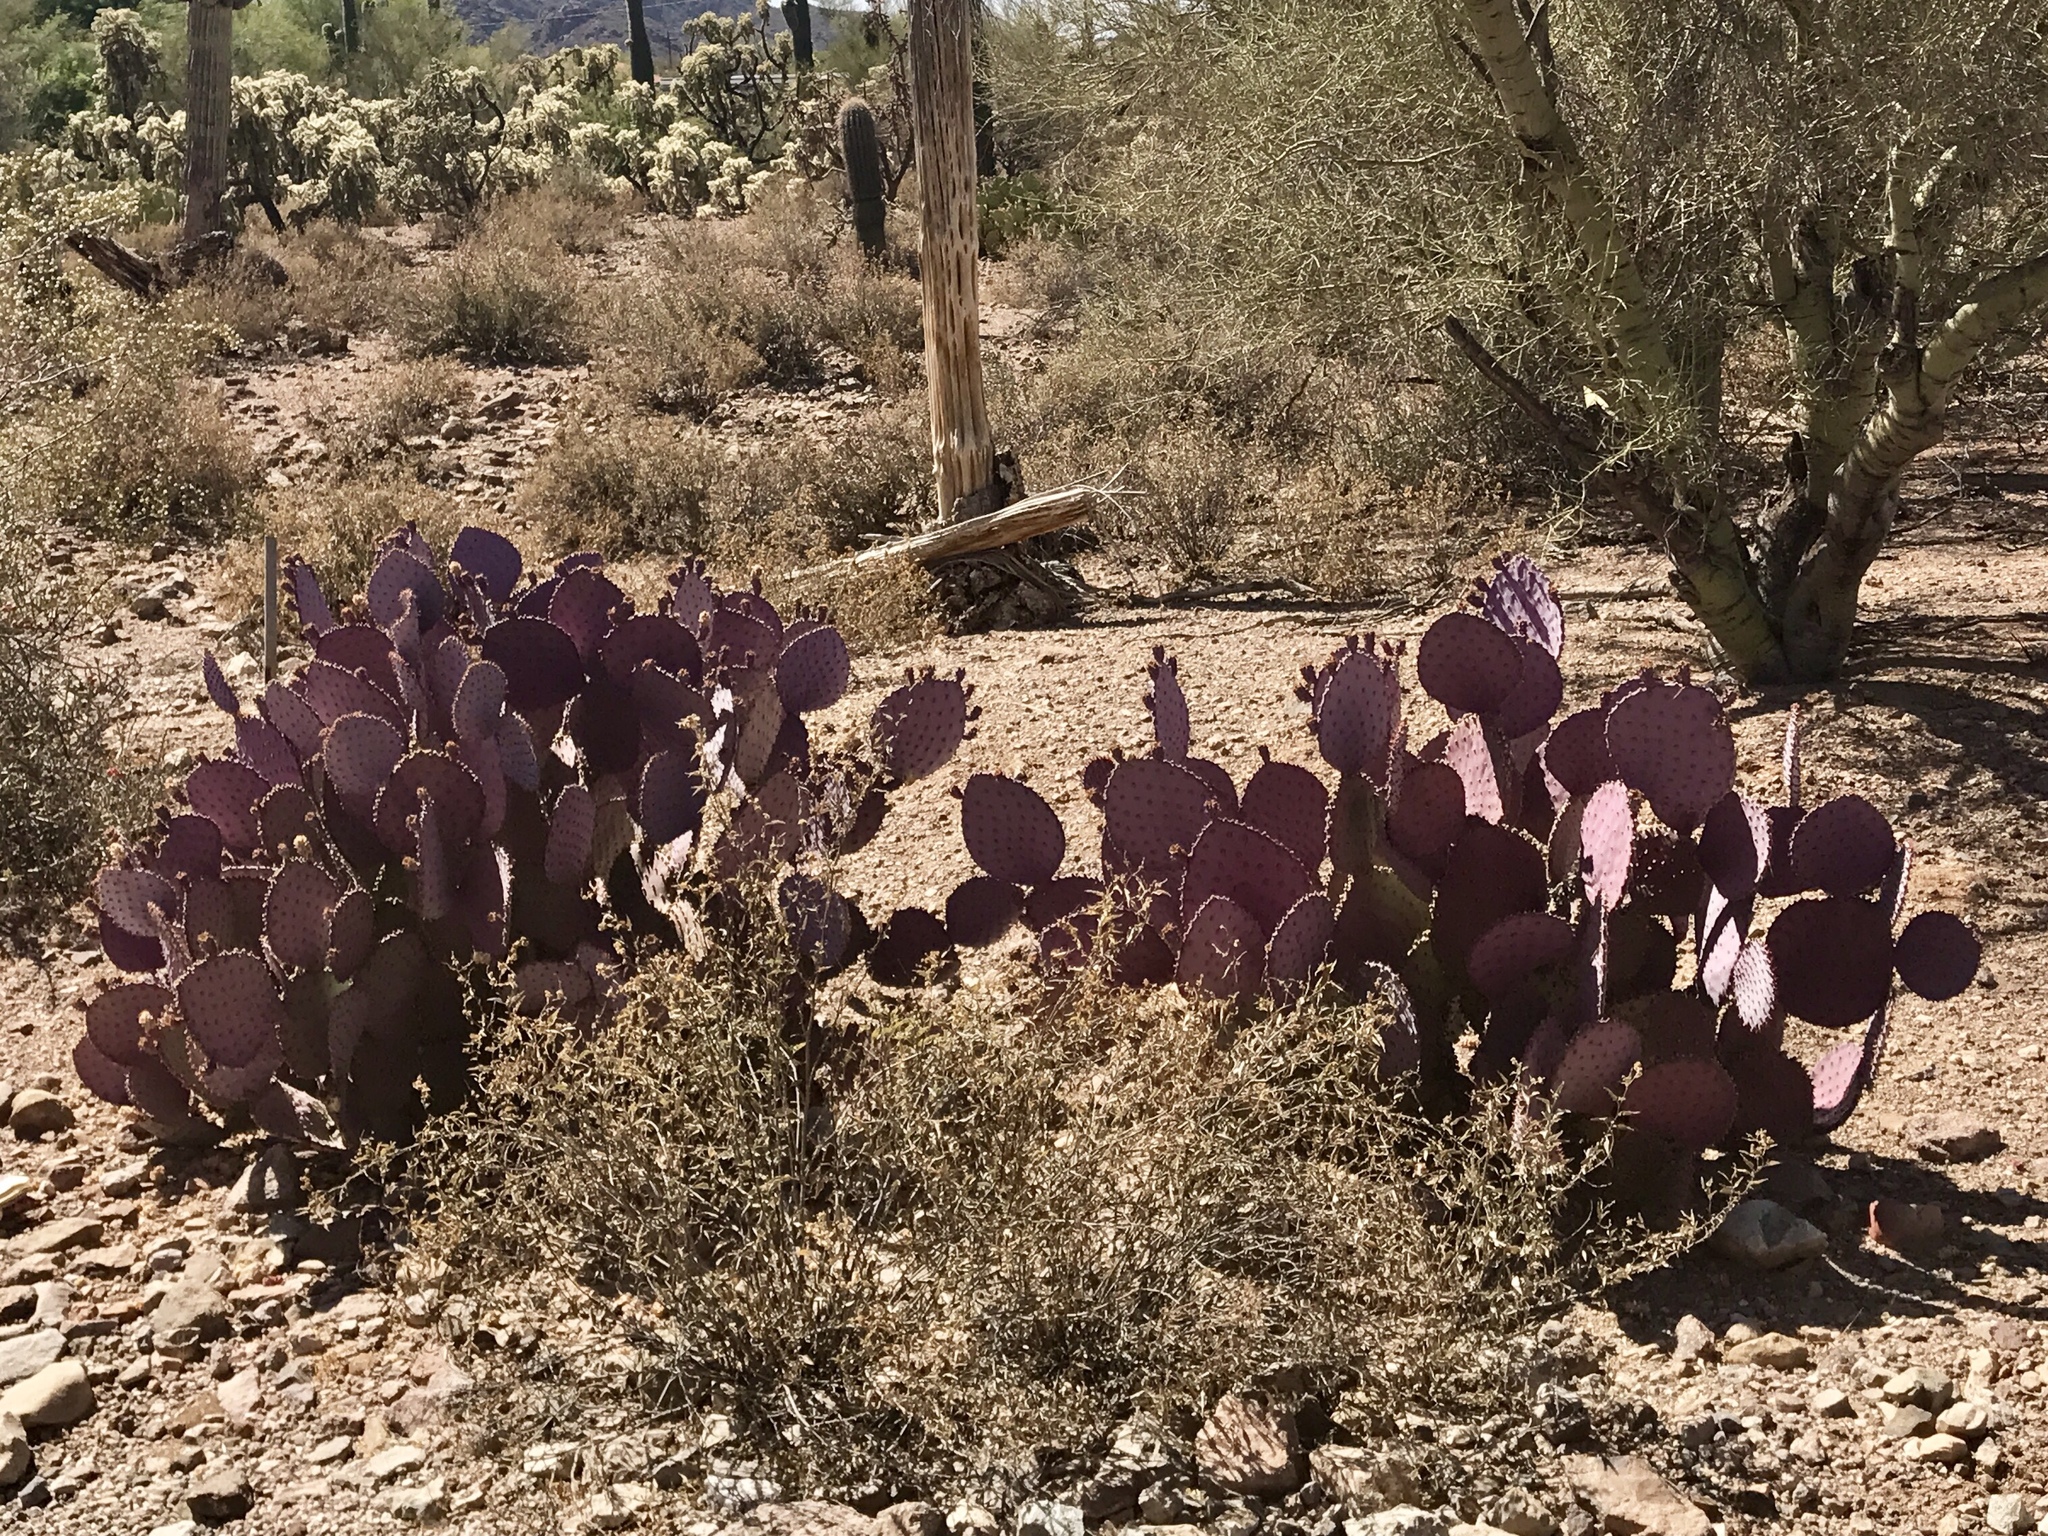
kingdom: Plantae
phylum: Tracheophyta
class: Magnoliopsida
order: Caryophyllales
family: Cactaceae
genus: Opuntia
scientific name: Opuntia gosseliniana
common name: Violet prickly-pear
